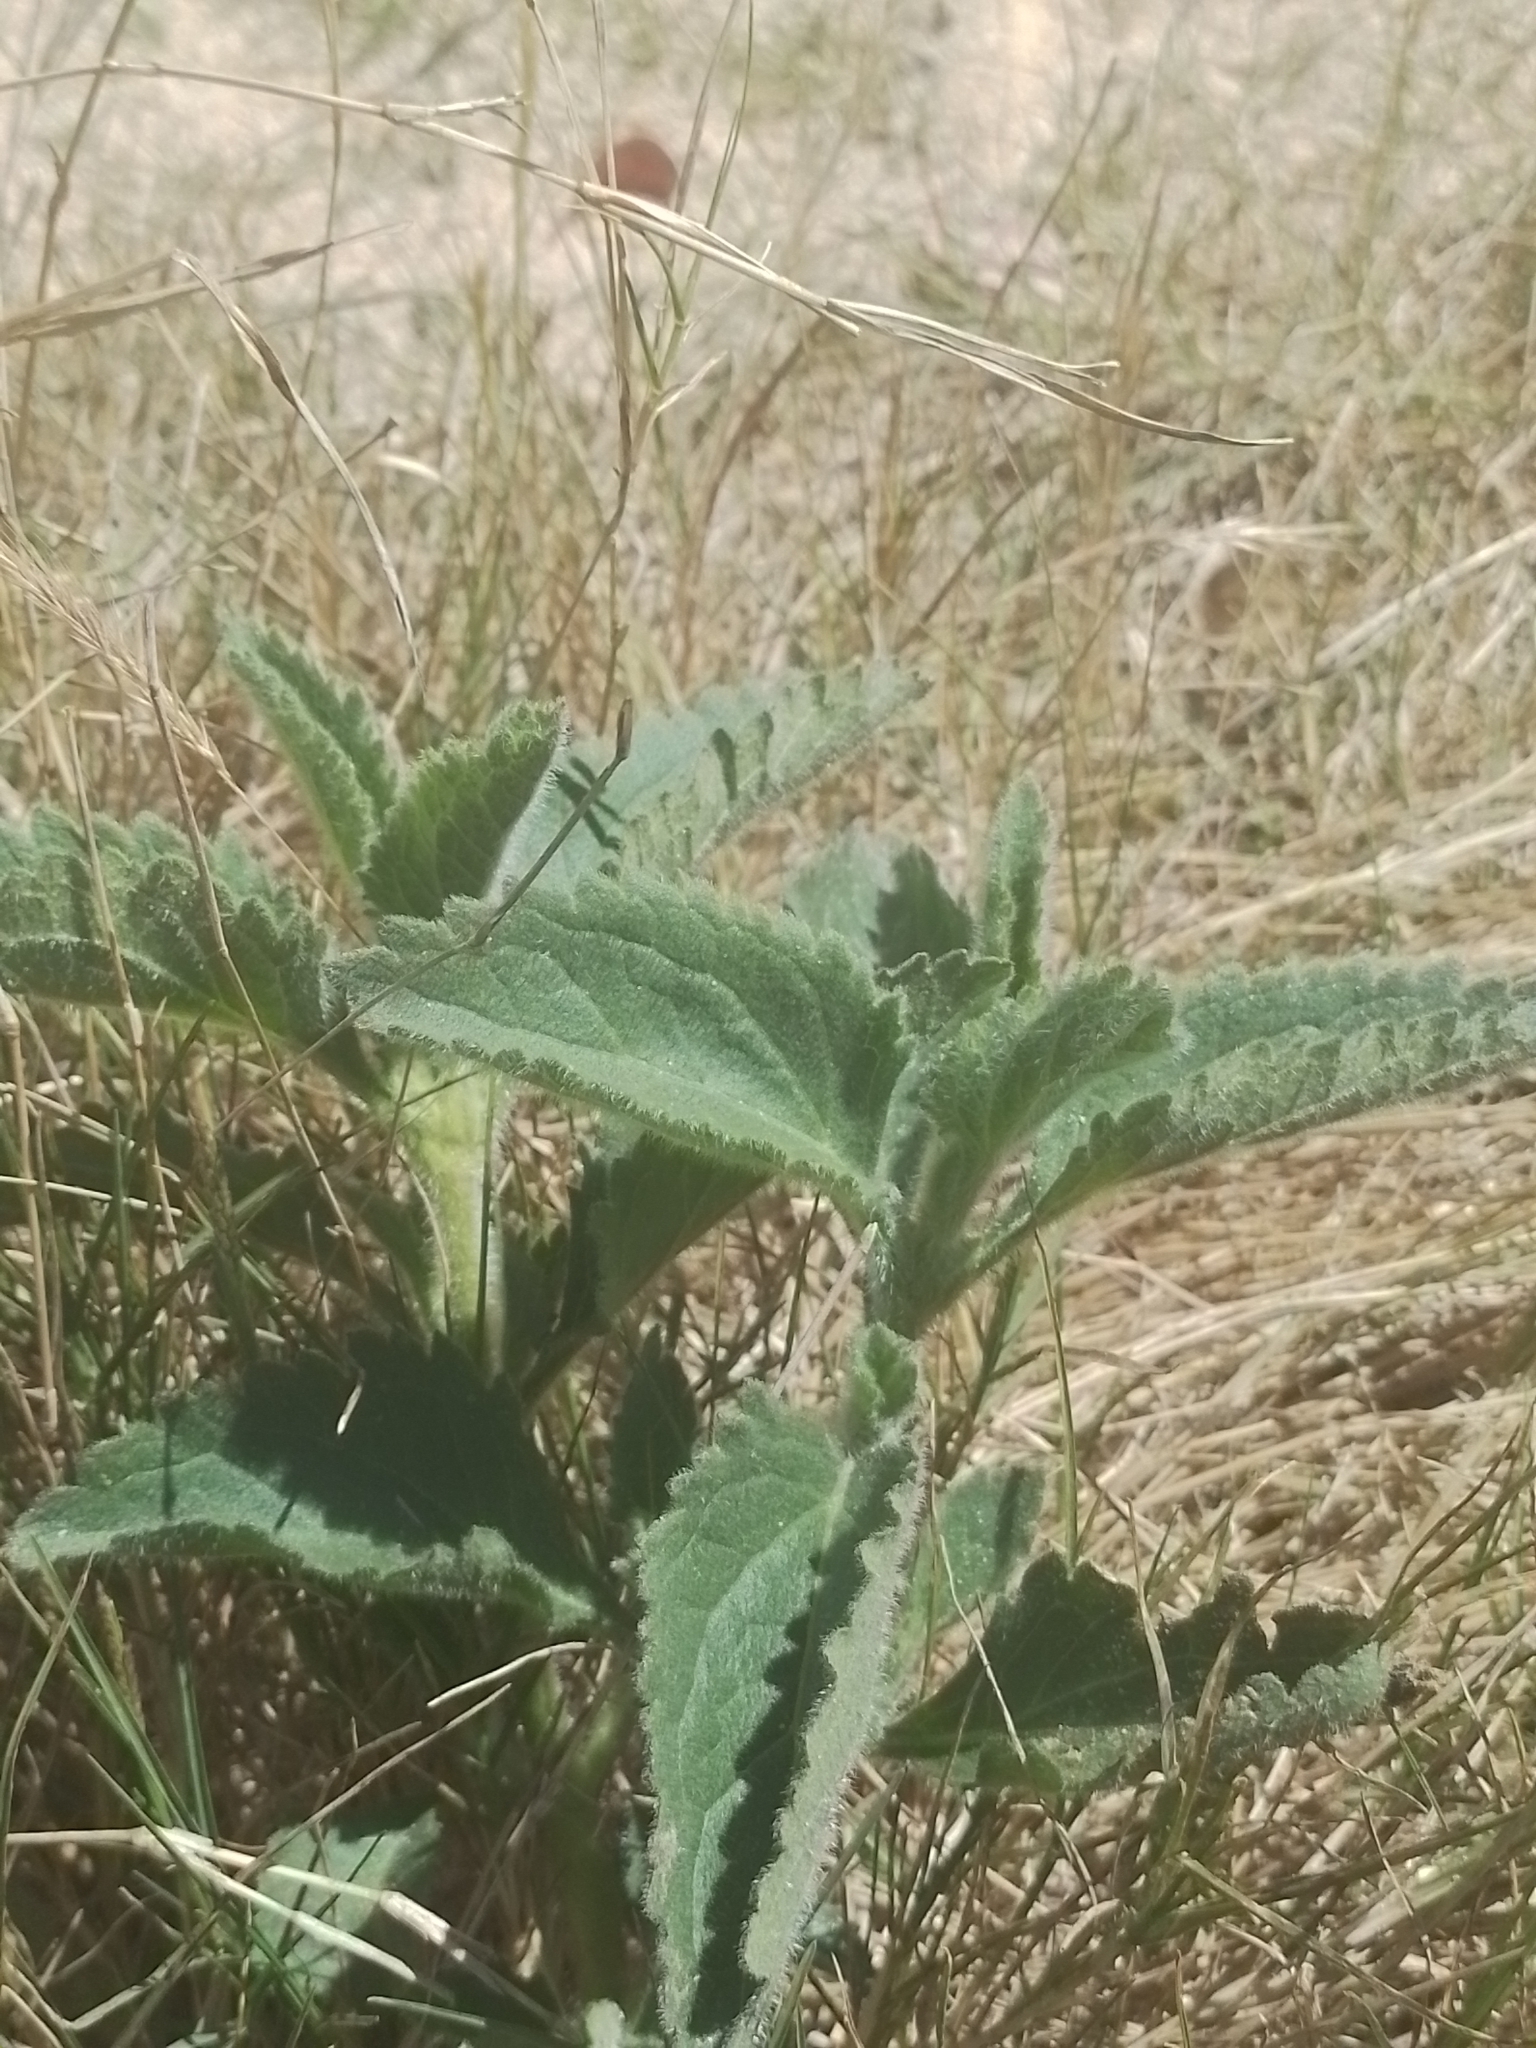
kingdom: Plantae
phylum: Tracheophyta
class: Magnoliopsida
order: Asterales
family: Asteraceae
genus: Campuloclinium
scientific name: Campuloclinium macrocephalum
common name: Pompomweed
